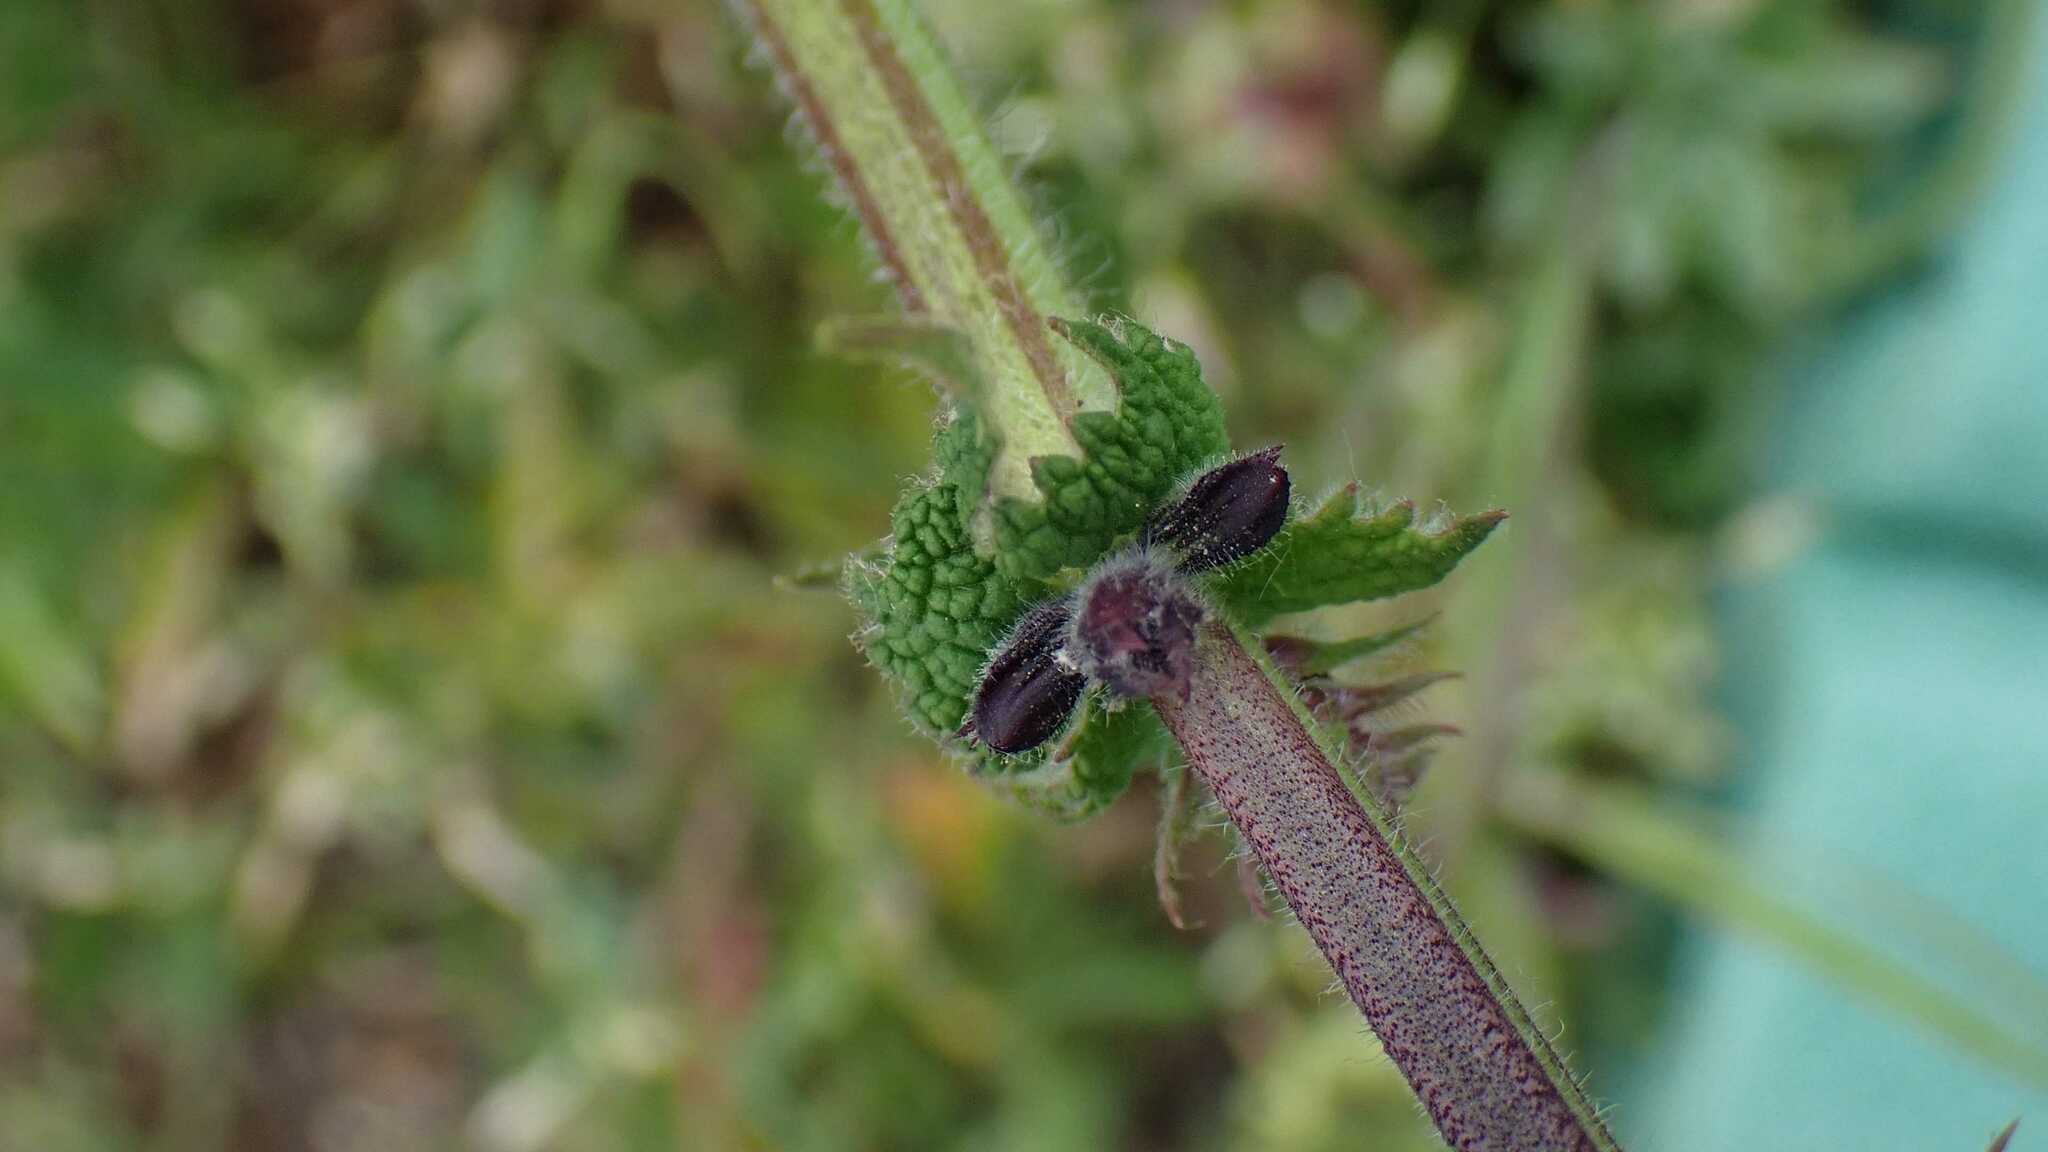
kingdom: Plantae
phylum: Tracheophyta
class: Magnoliopsida
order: Lamiales
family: Lamiaceae
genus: Salvia
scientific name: Salvia pratensis
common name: Meadow sage
